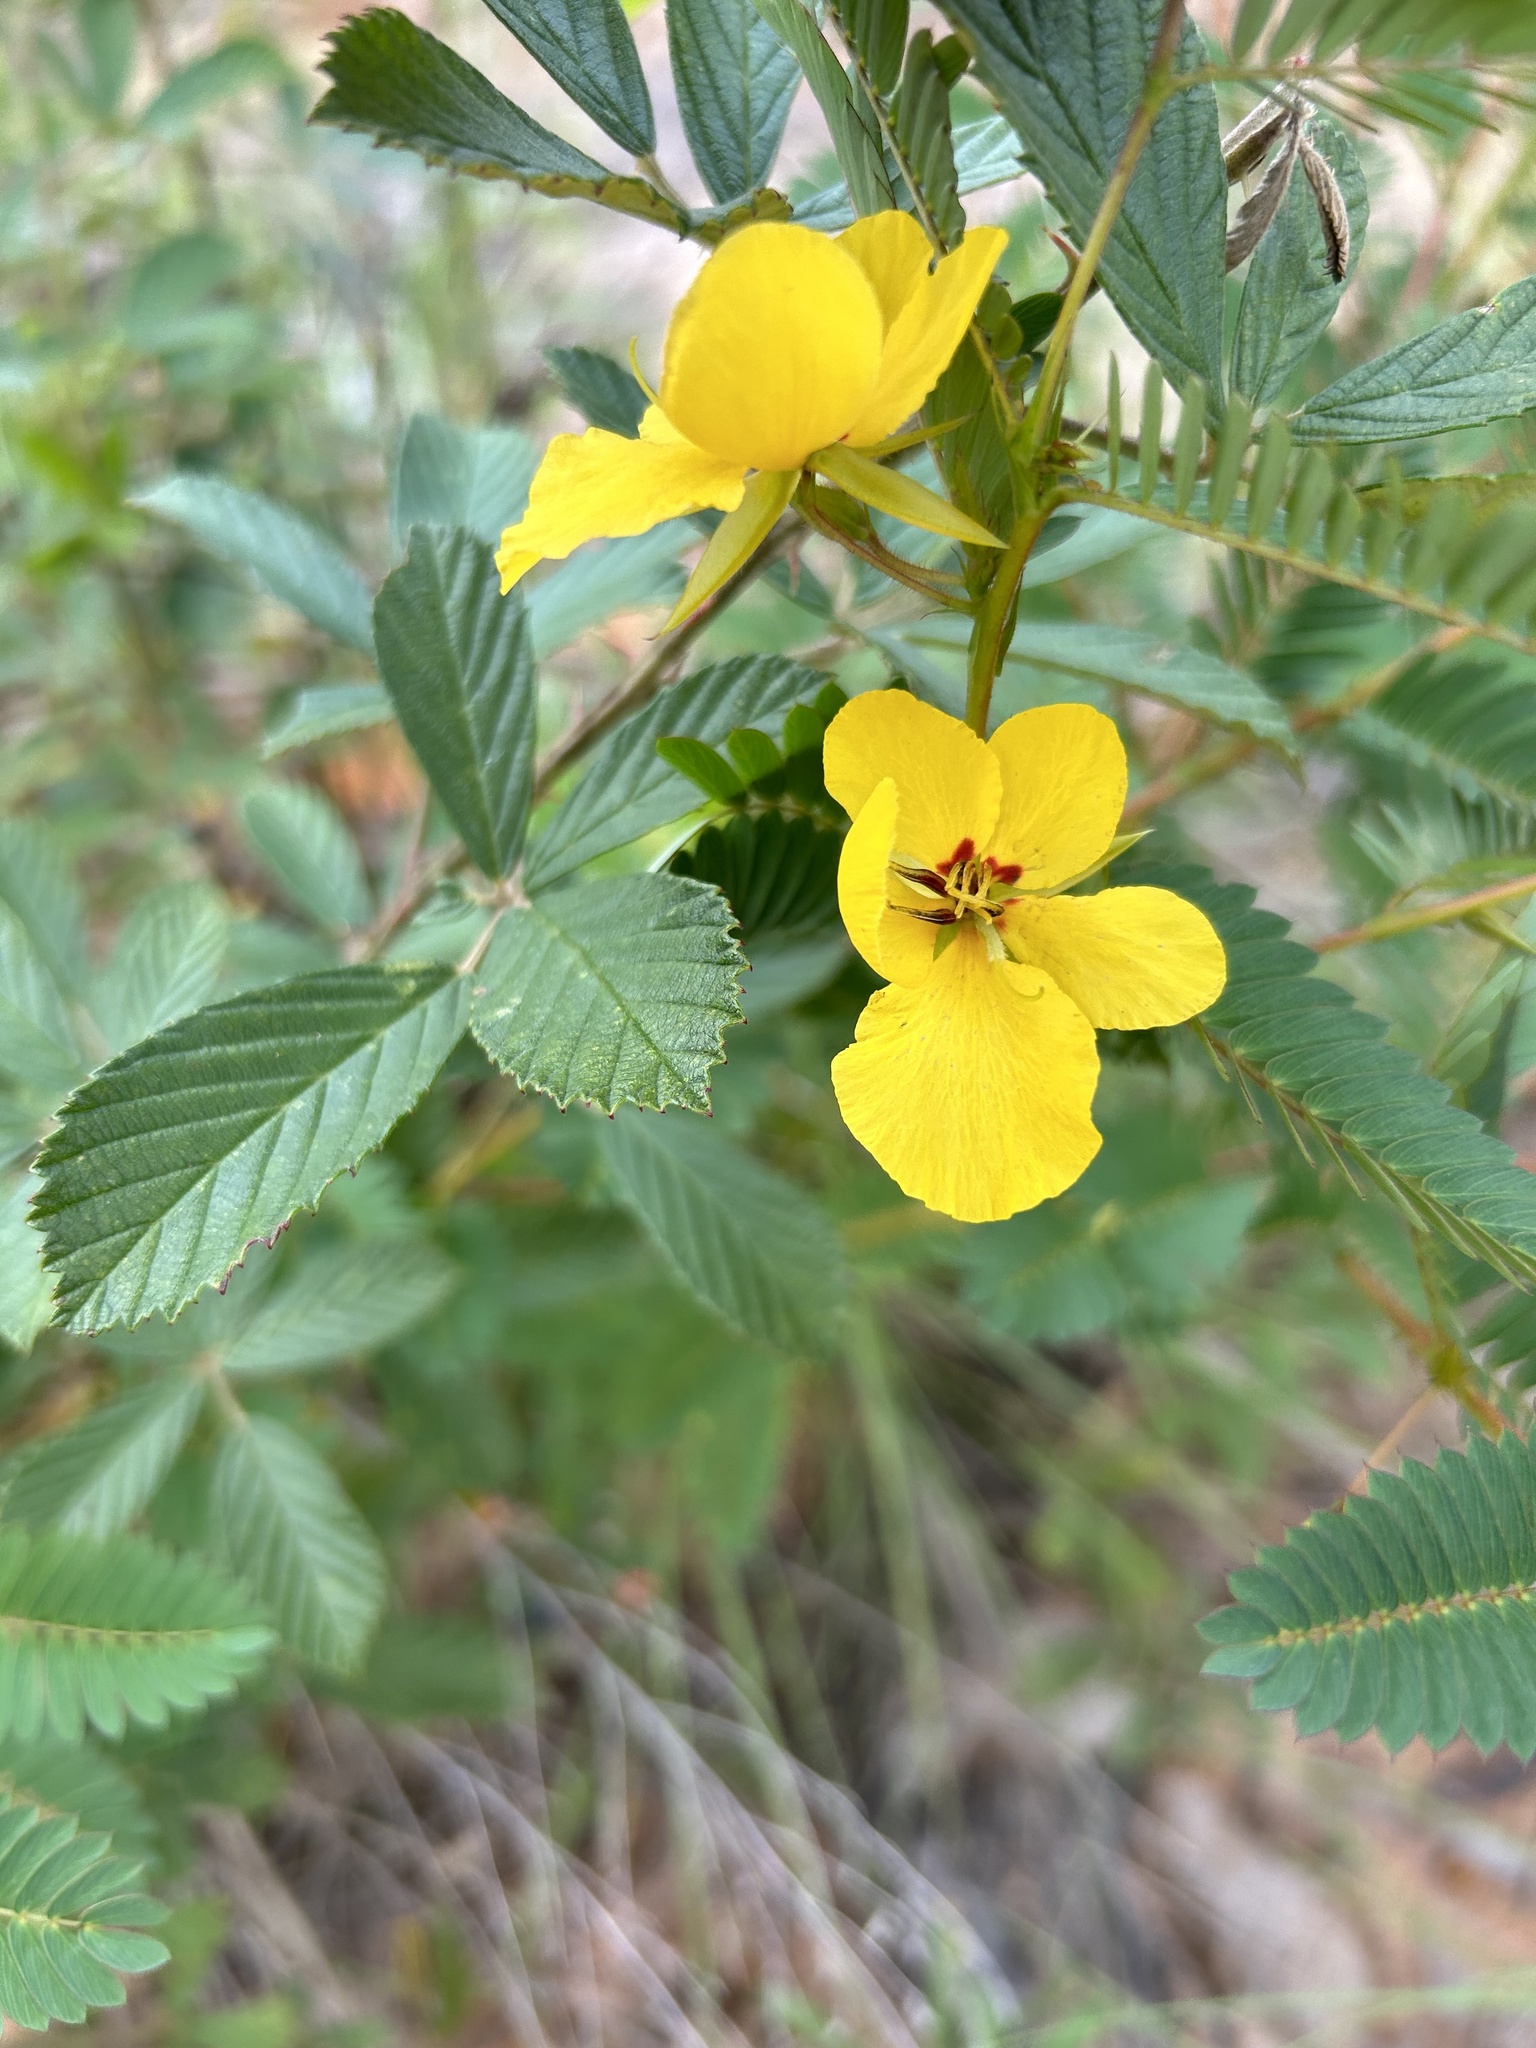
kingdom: Plantae
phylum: Tracheophyta
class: Magnoliopsida
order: Fabales
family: Fabaceae
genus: Chamaecrista
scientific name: Chamaecrista fasciculata
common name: Golden cassia
